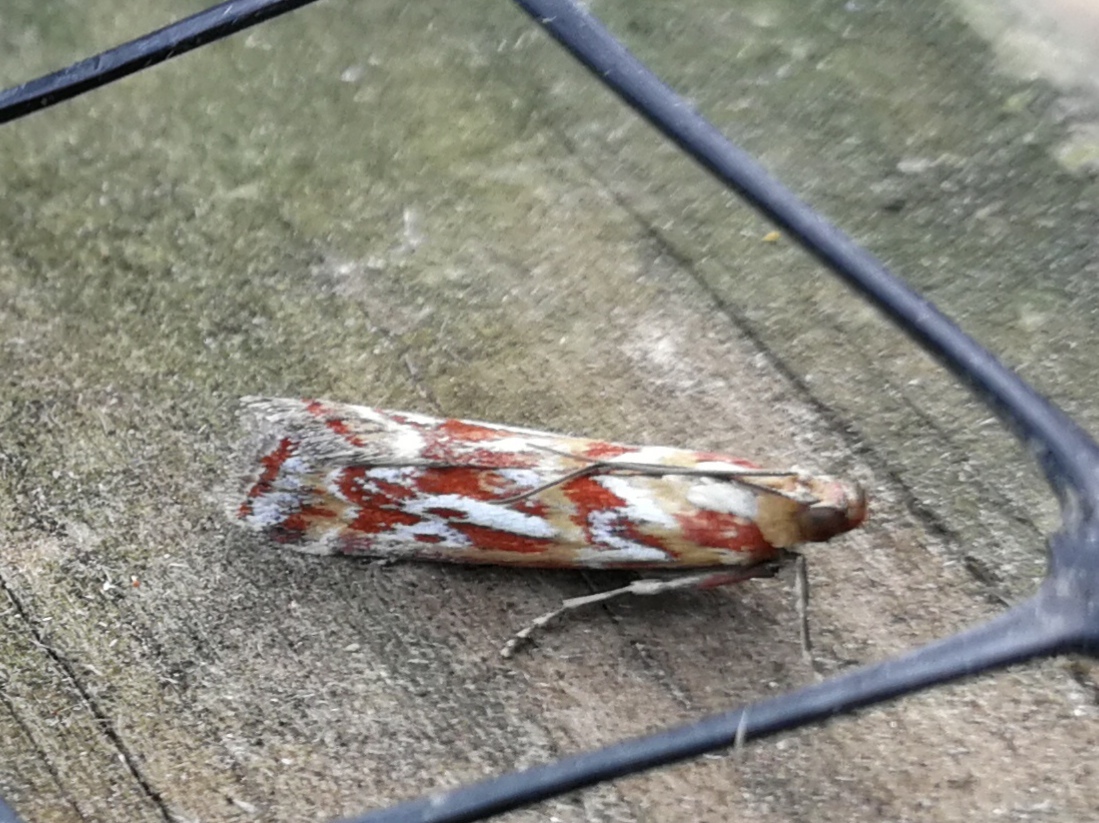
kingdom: Animalia
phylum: Arthropoda
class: Insecta
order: Lepidoptera
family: Pyralidae
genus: Acrobasis
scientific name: Acrobasis porphyrella
